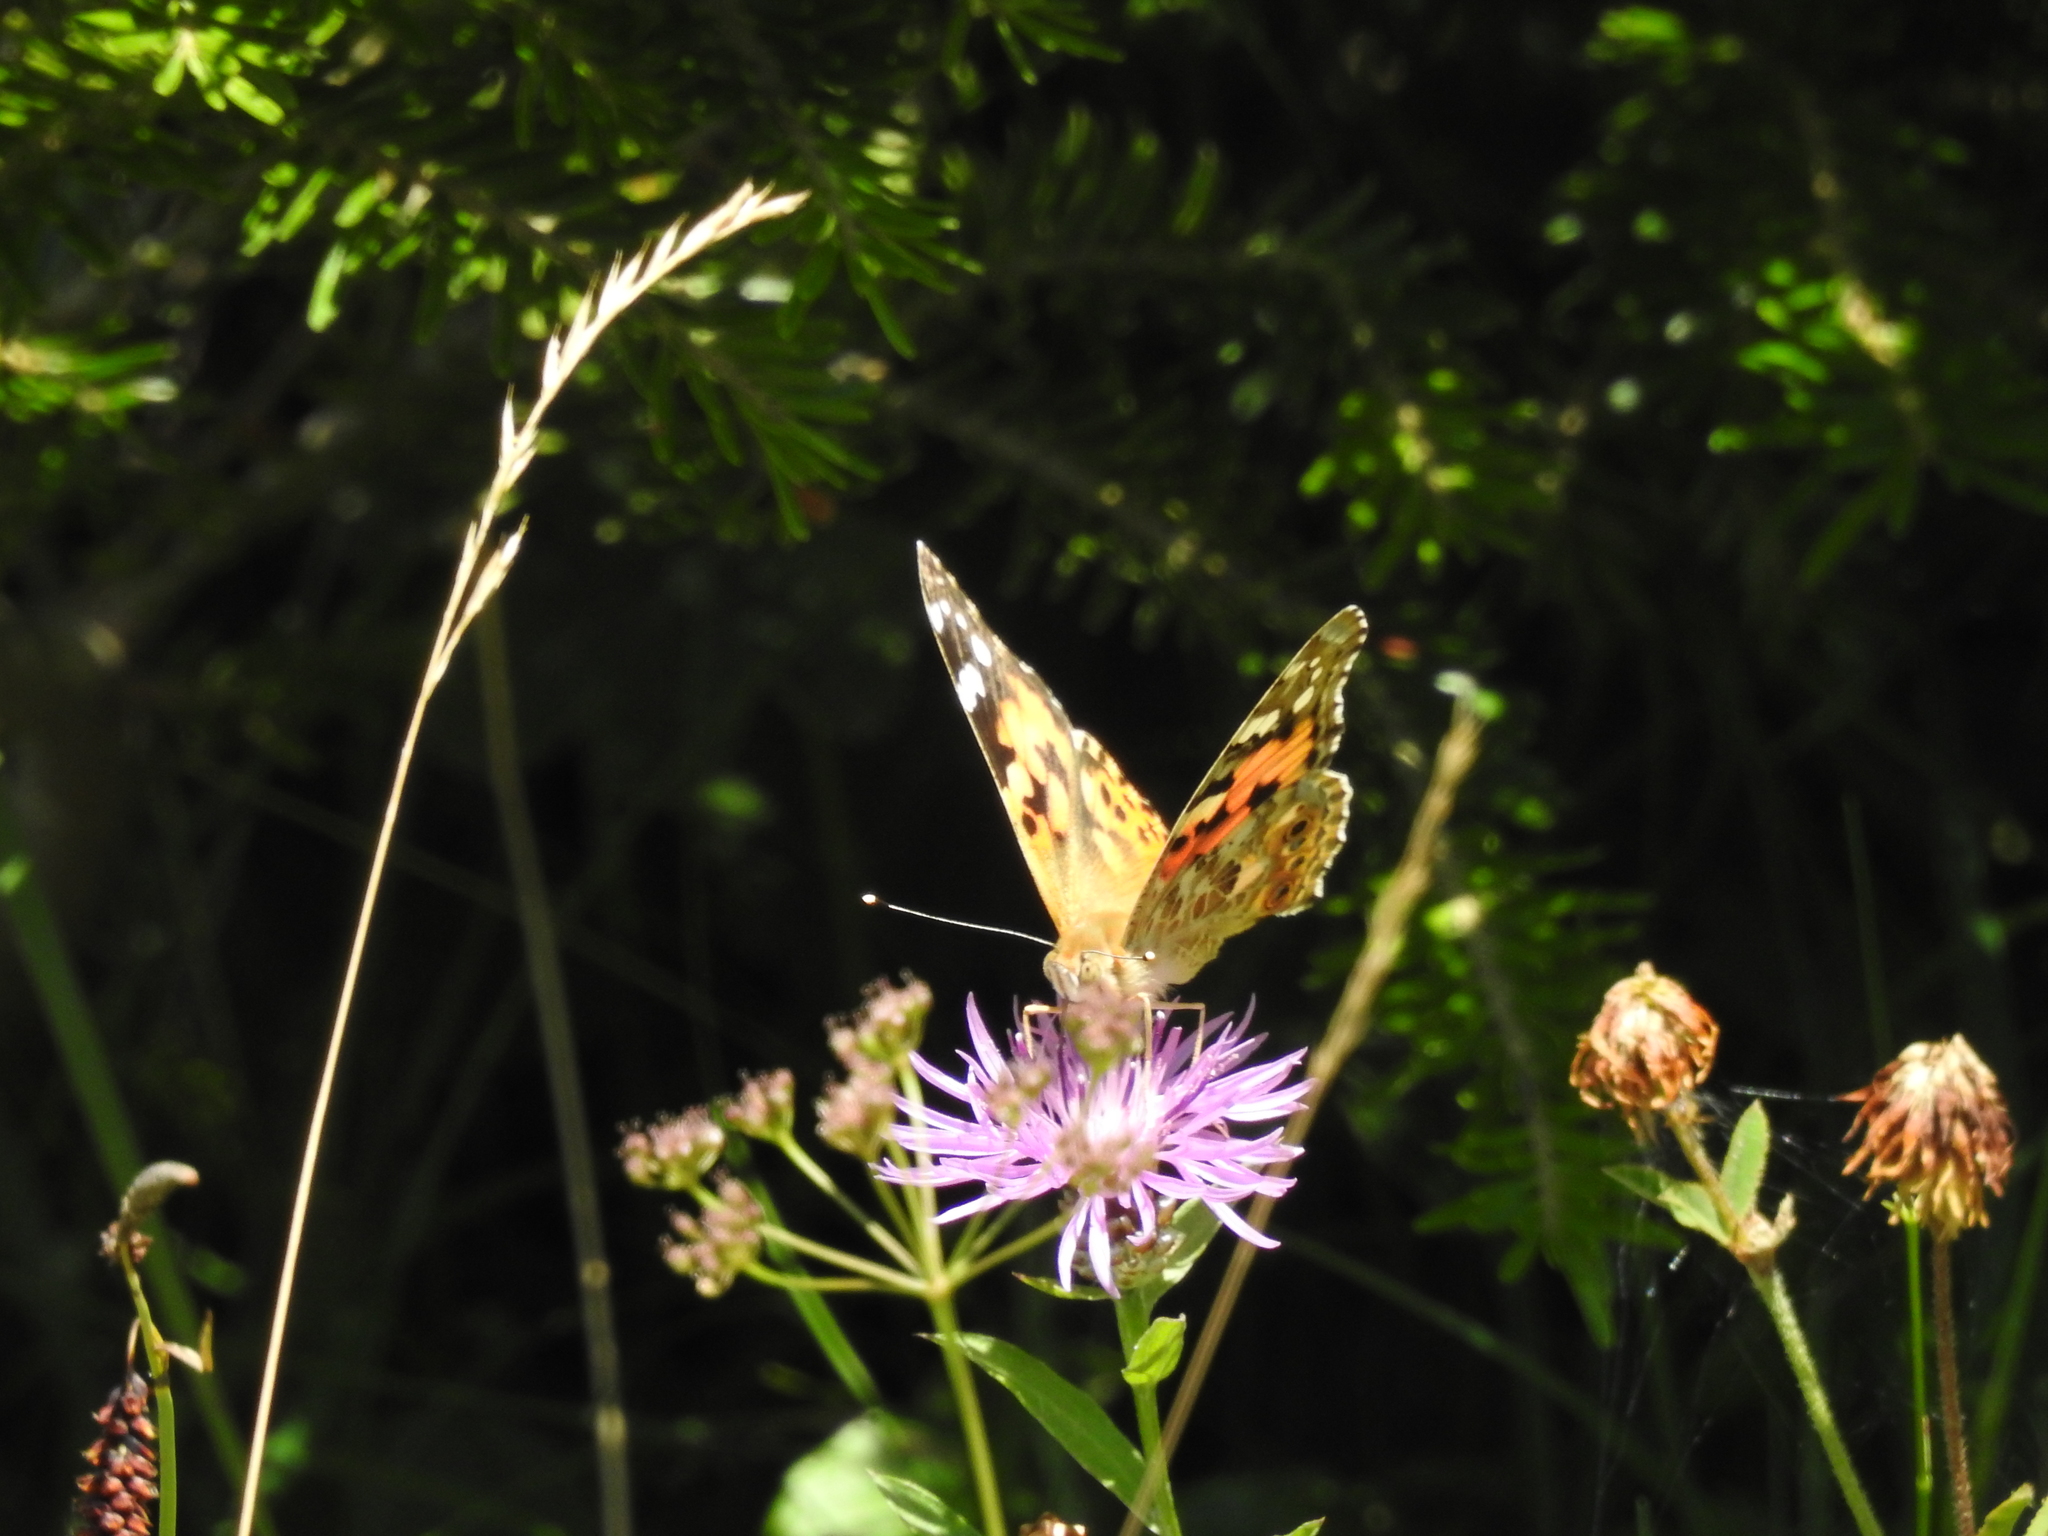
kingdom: Animalia
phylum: Arthropoda
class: Insecta
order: Lepidoptera
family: Nymphalidae
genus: Vanessa
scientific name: Vanessa cardui
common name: Painted lady
